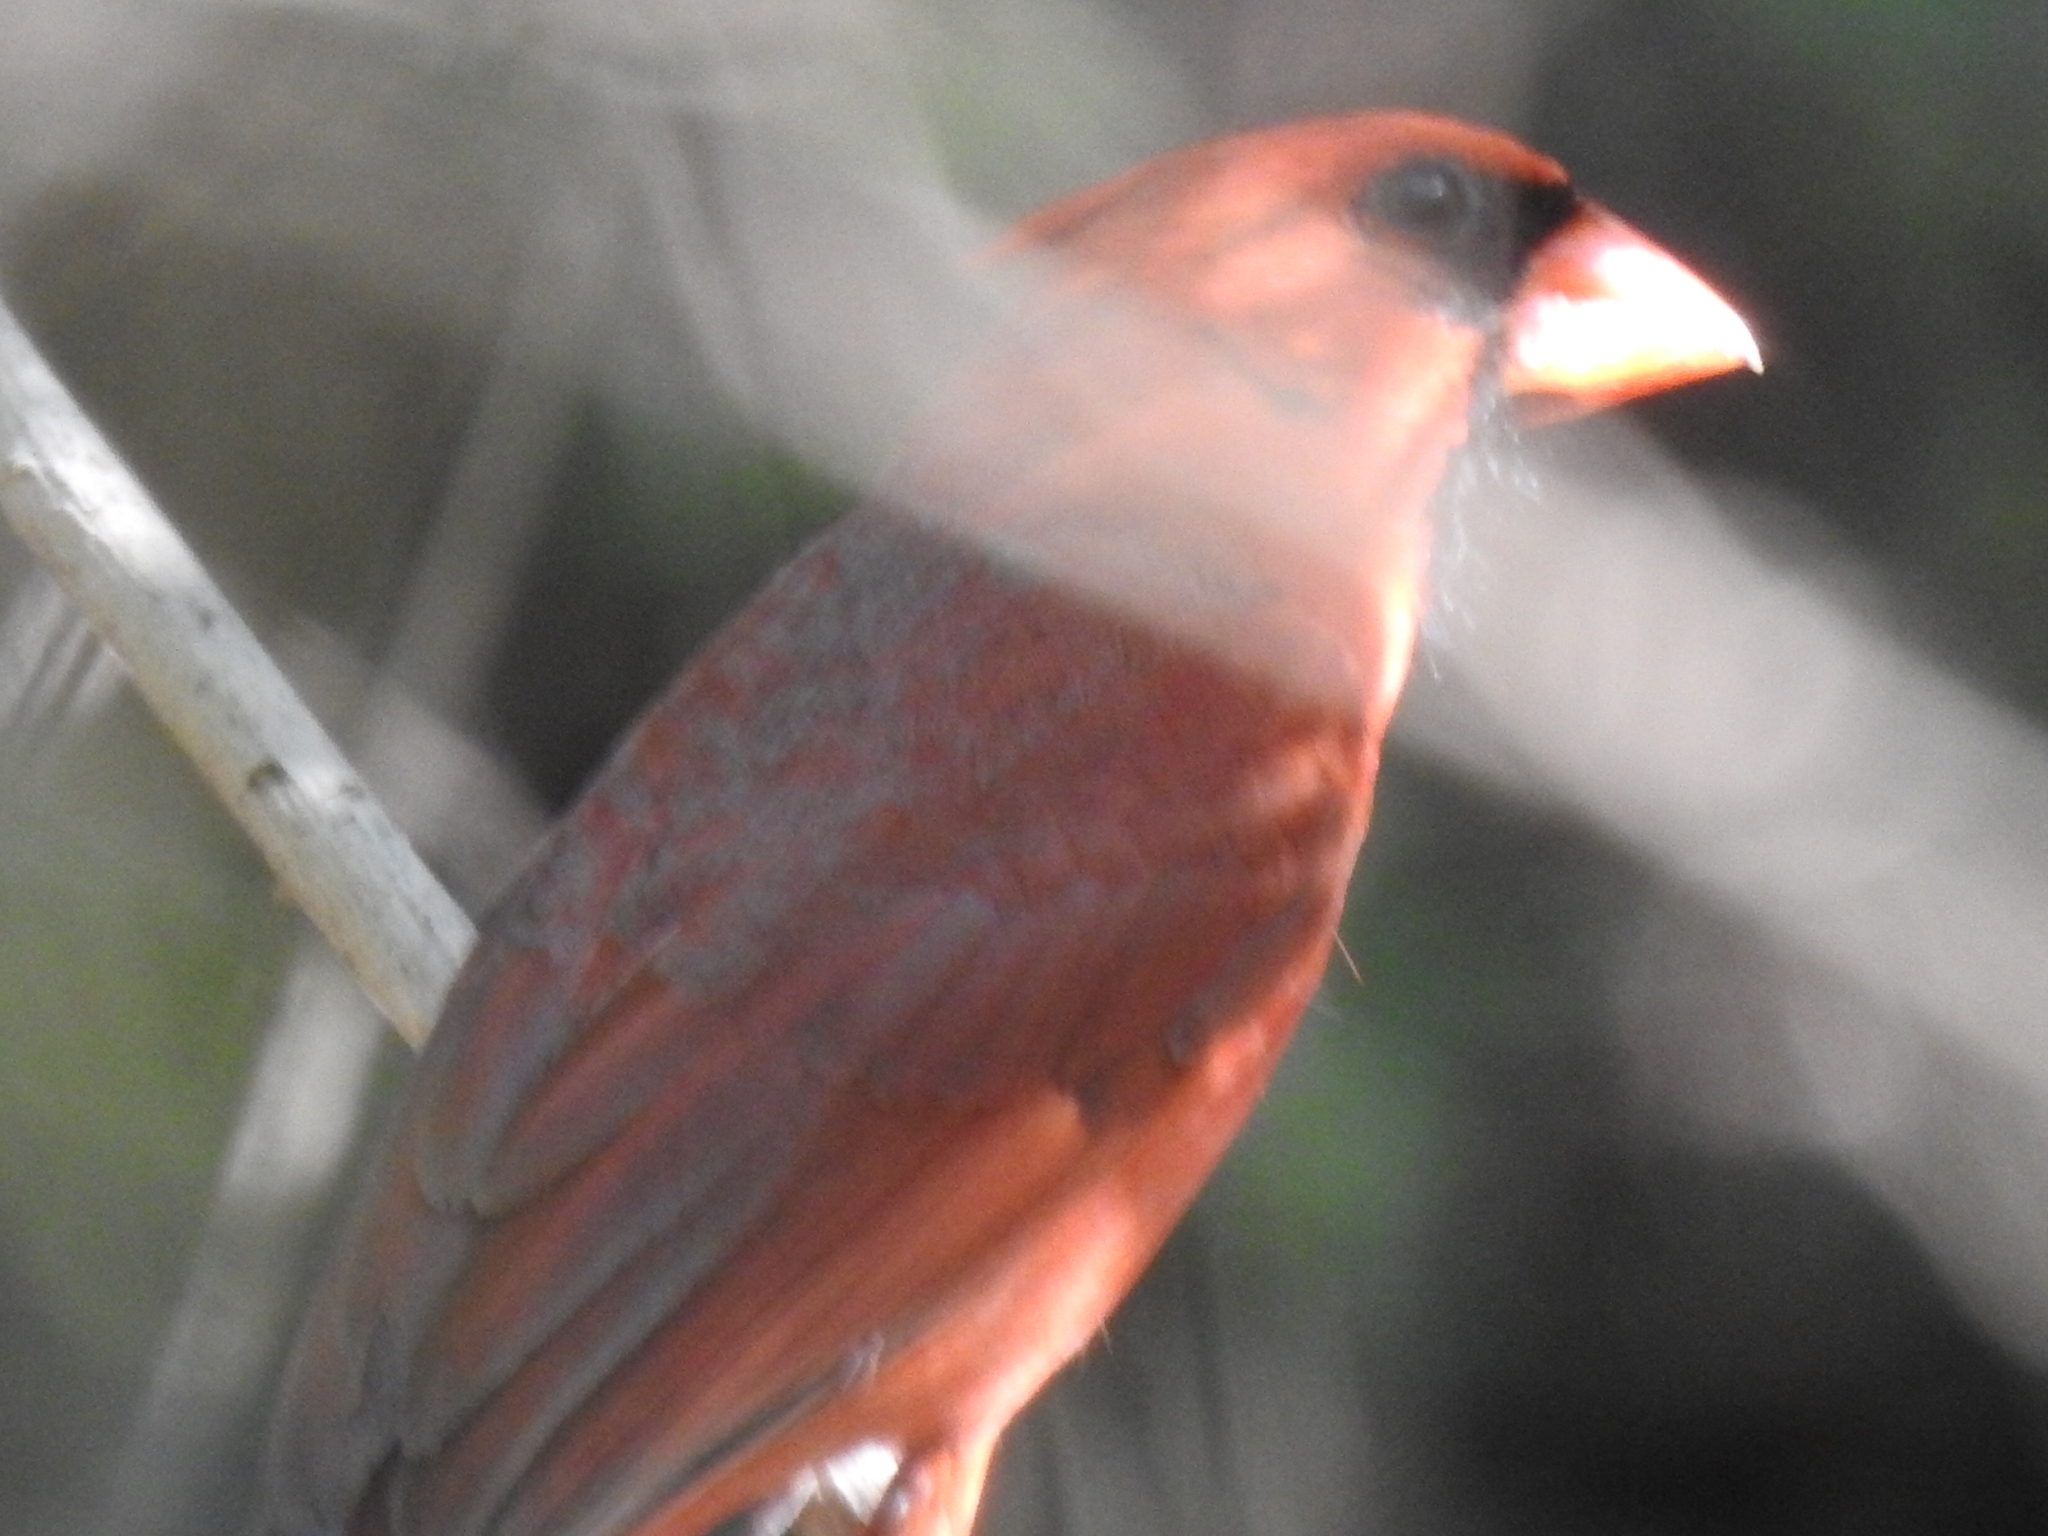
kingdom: Animalia
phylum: Chordata
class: Aves
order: Passeriformes
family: Cardinalidae
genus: Cardinalis
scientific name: Cardinalis cardinalis
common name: Northern cardinal
